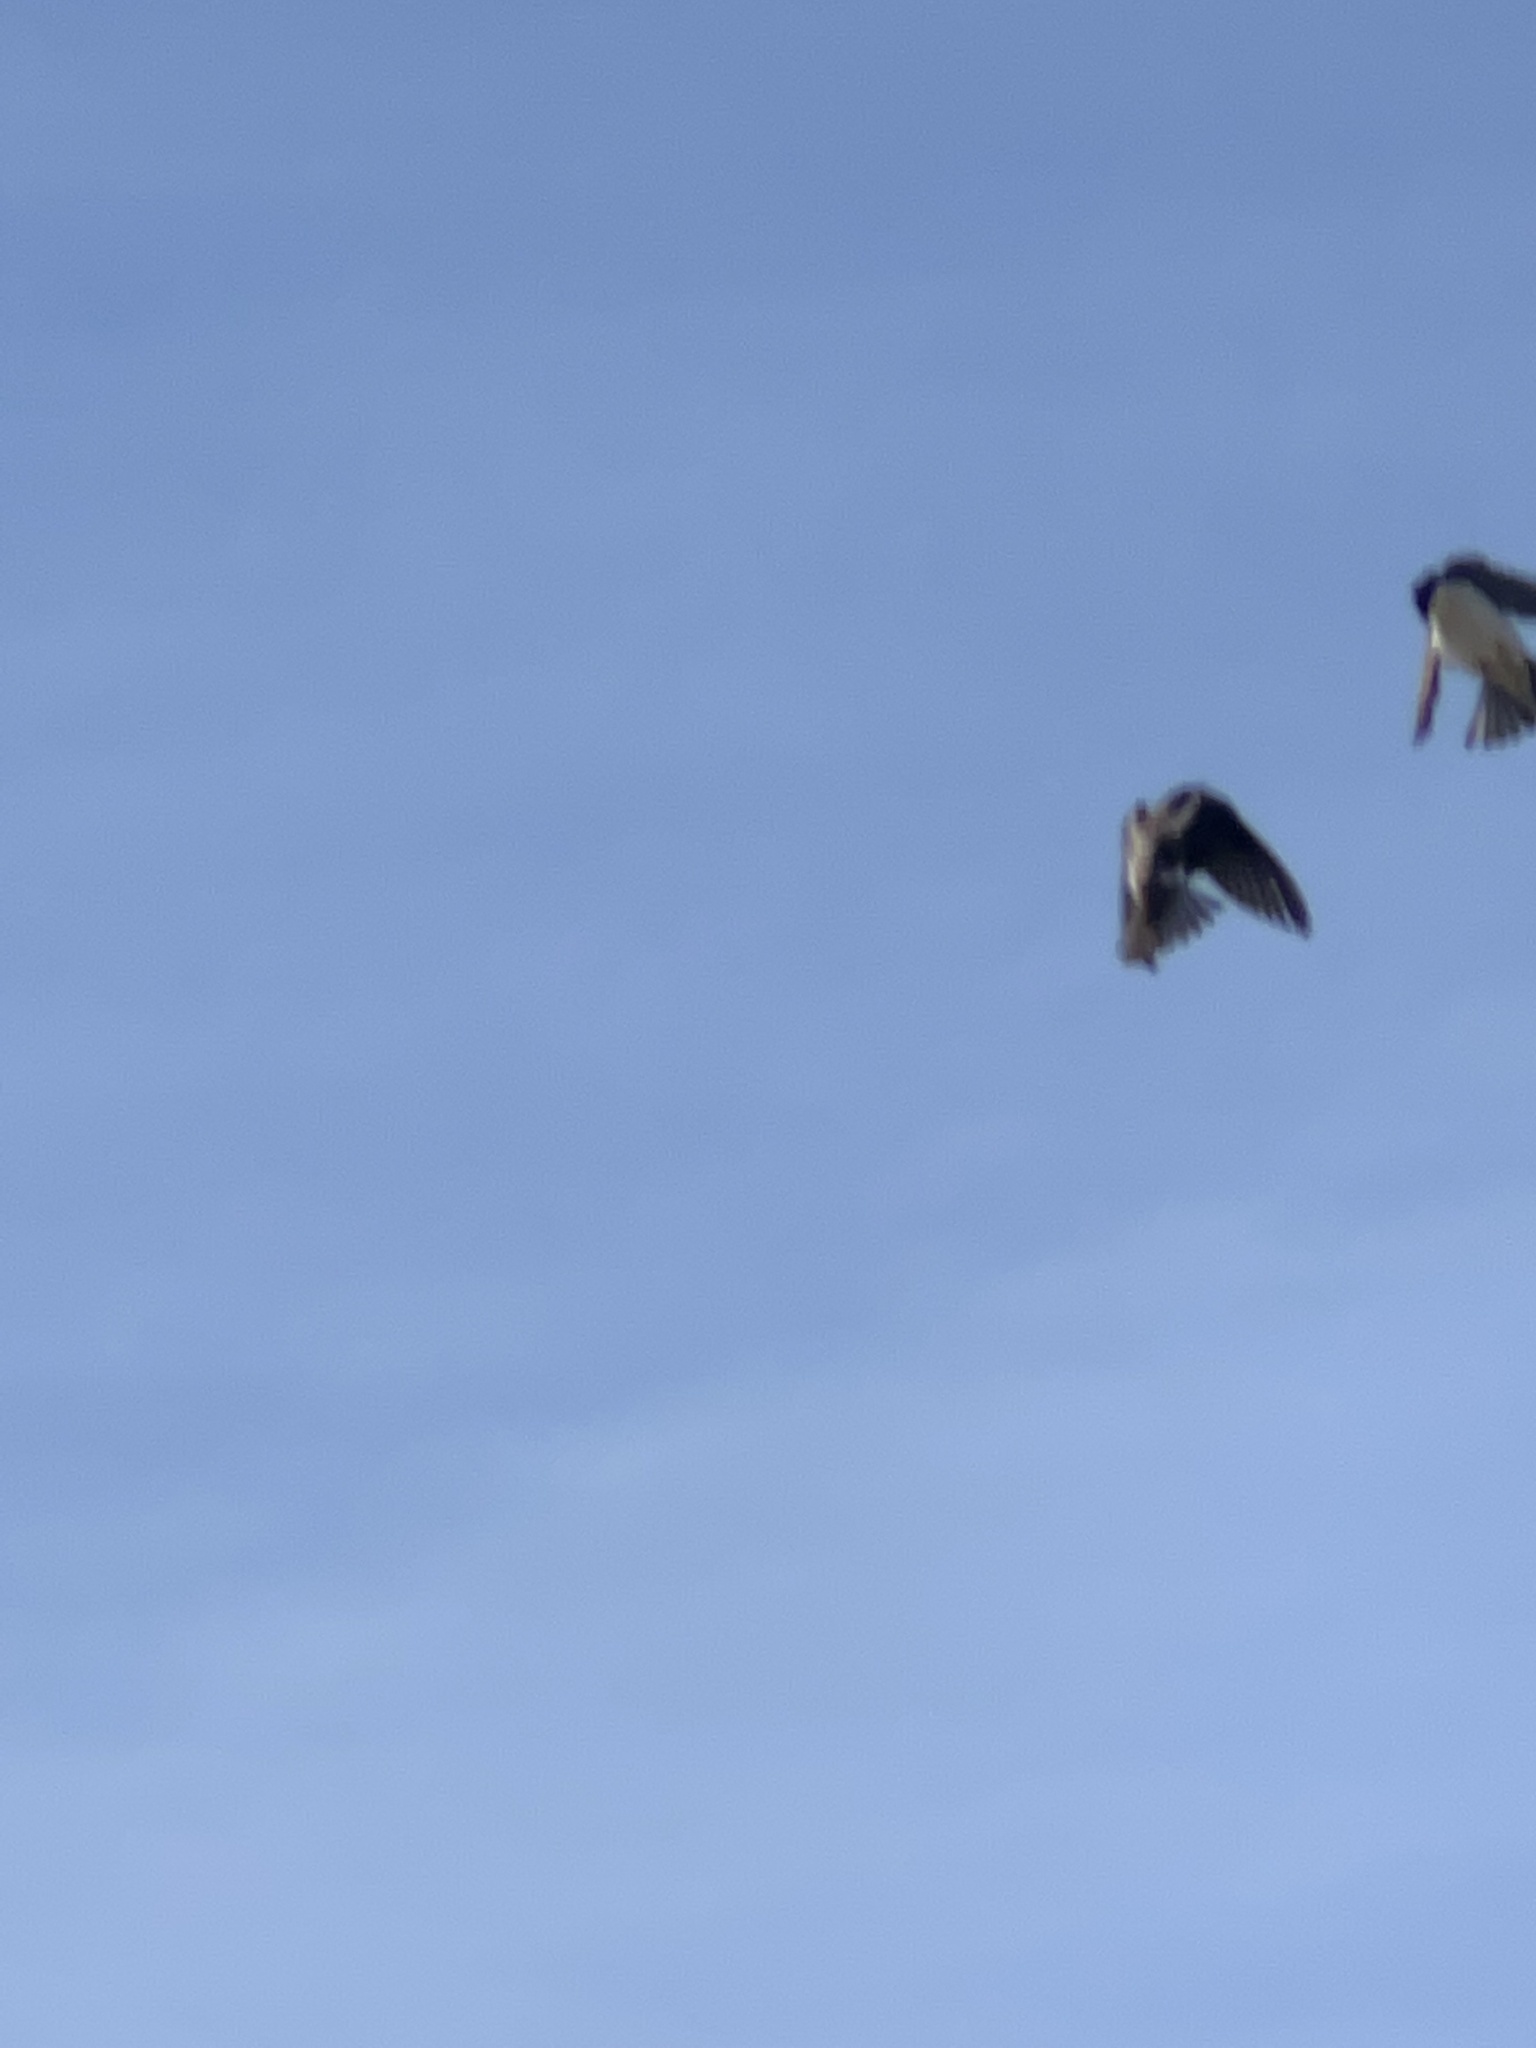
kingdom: Animalia
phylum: Chordata
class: Aves
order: Passeriformes
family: Hirundinidae
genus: Tachycineta
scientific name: Tachycineta bicolor
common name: Tree swallow
